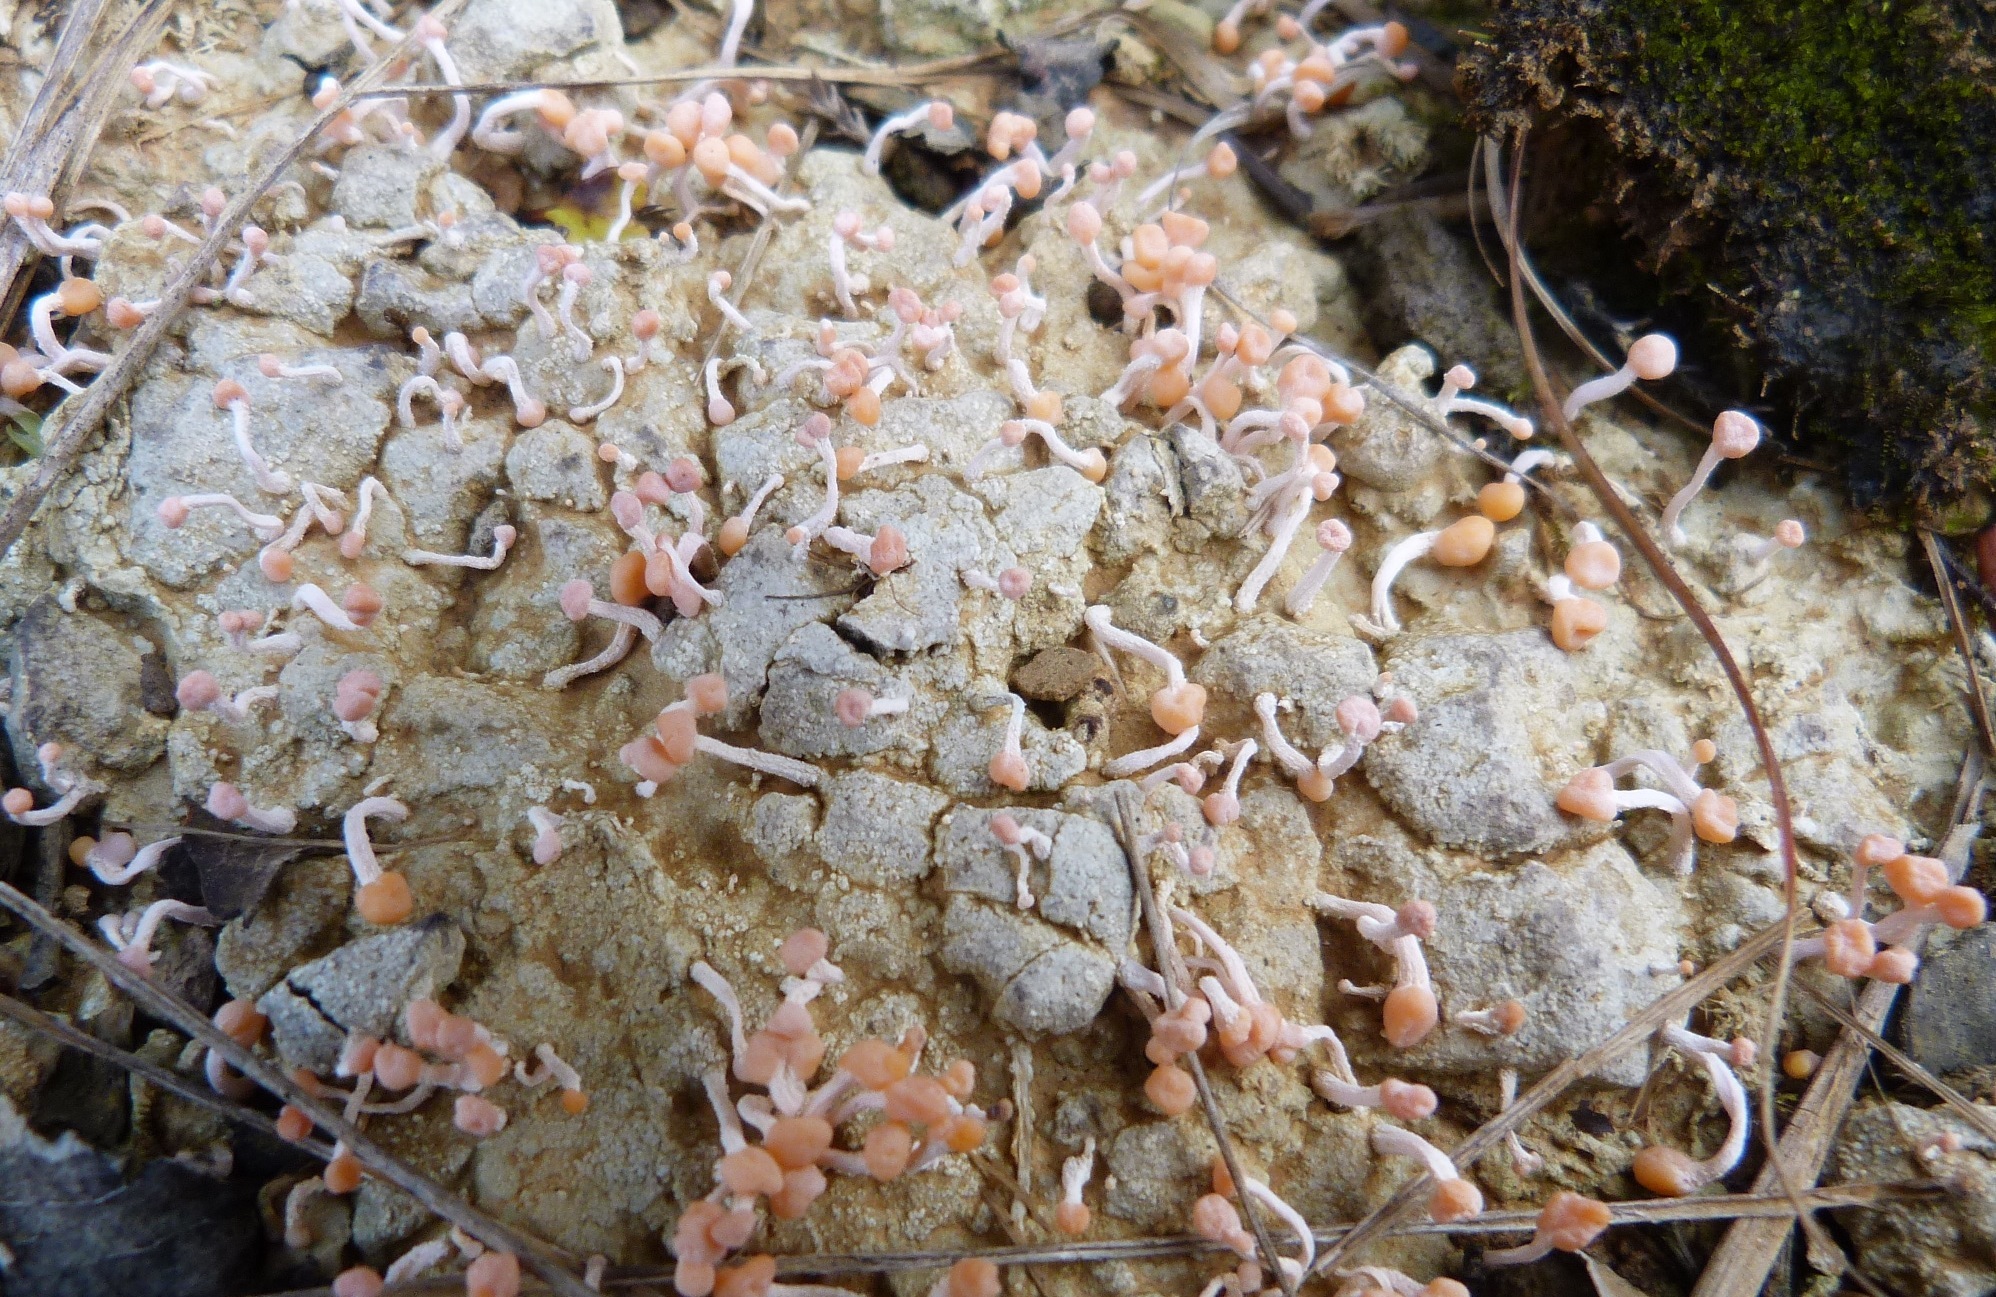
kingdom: Fungi
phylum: Ascomycota
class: Lecanoromycetes
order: Pertusariales
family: Icmadophilaceae
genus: Dibaeis
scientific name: Dibaeis arcuata
